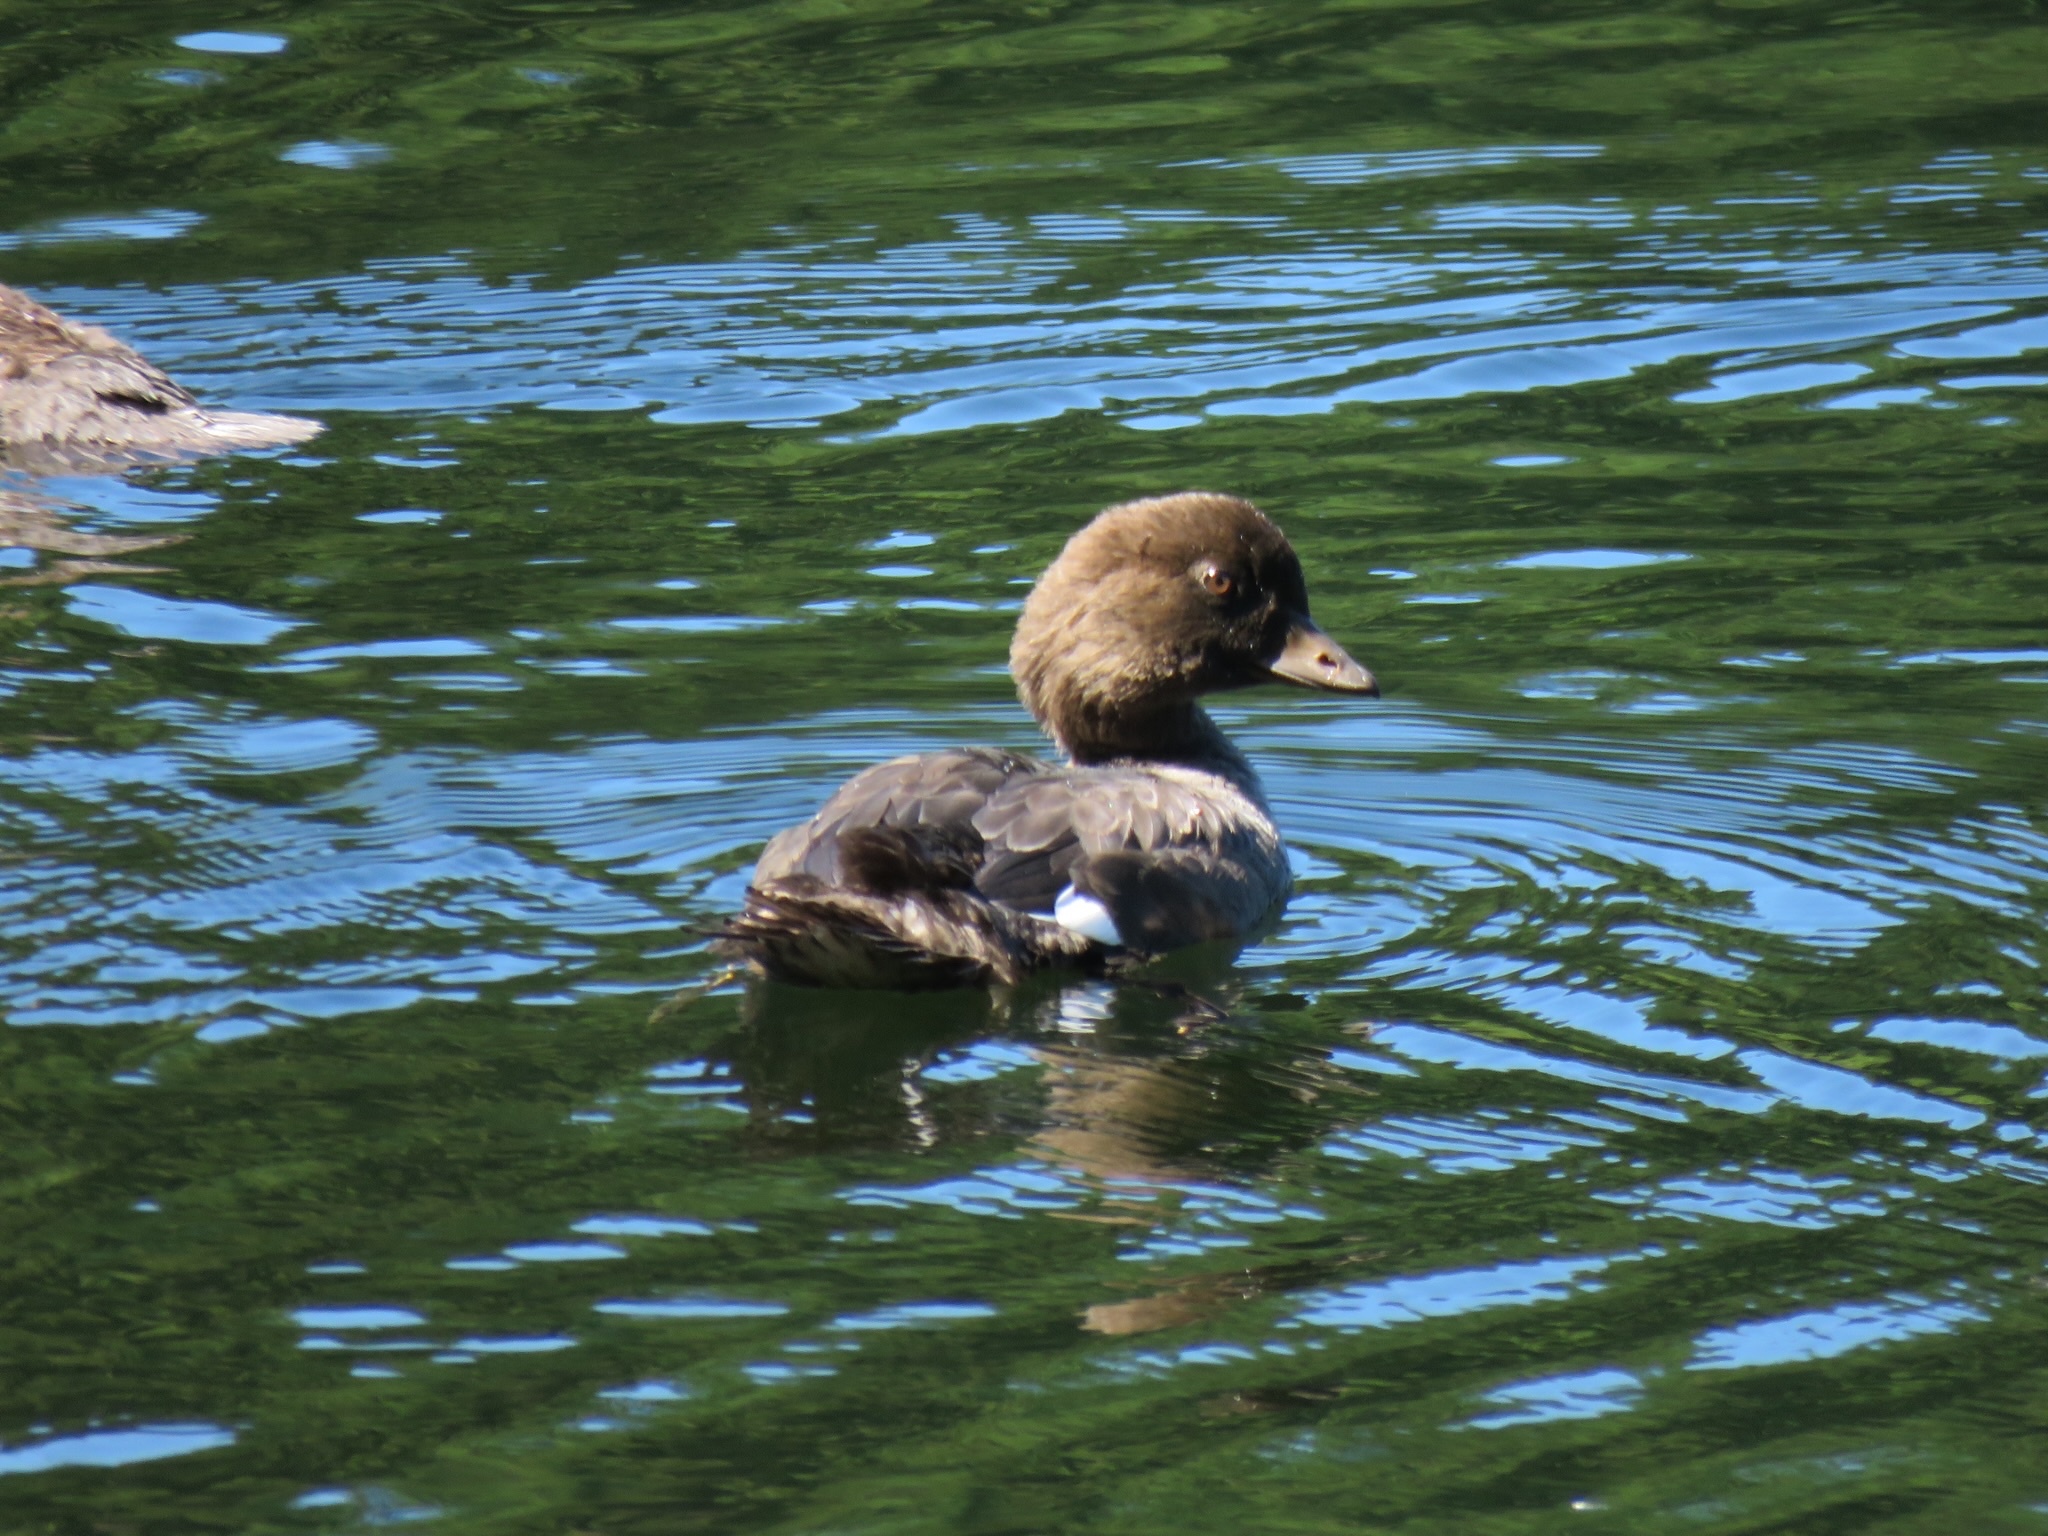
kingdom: Animalia
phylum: Chordata
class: Aves
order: Anseriformes
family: Anatidae
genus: Bucephala
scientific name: Bucephala islandica
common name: Barrow's goldeneye
